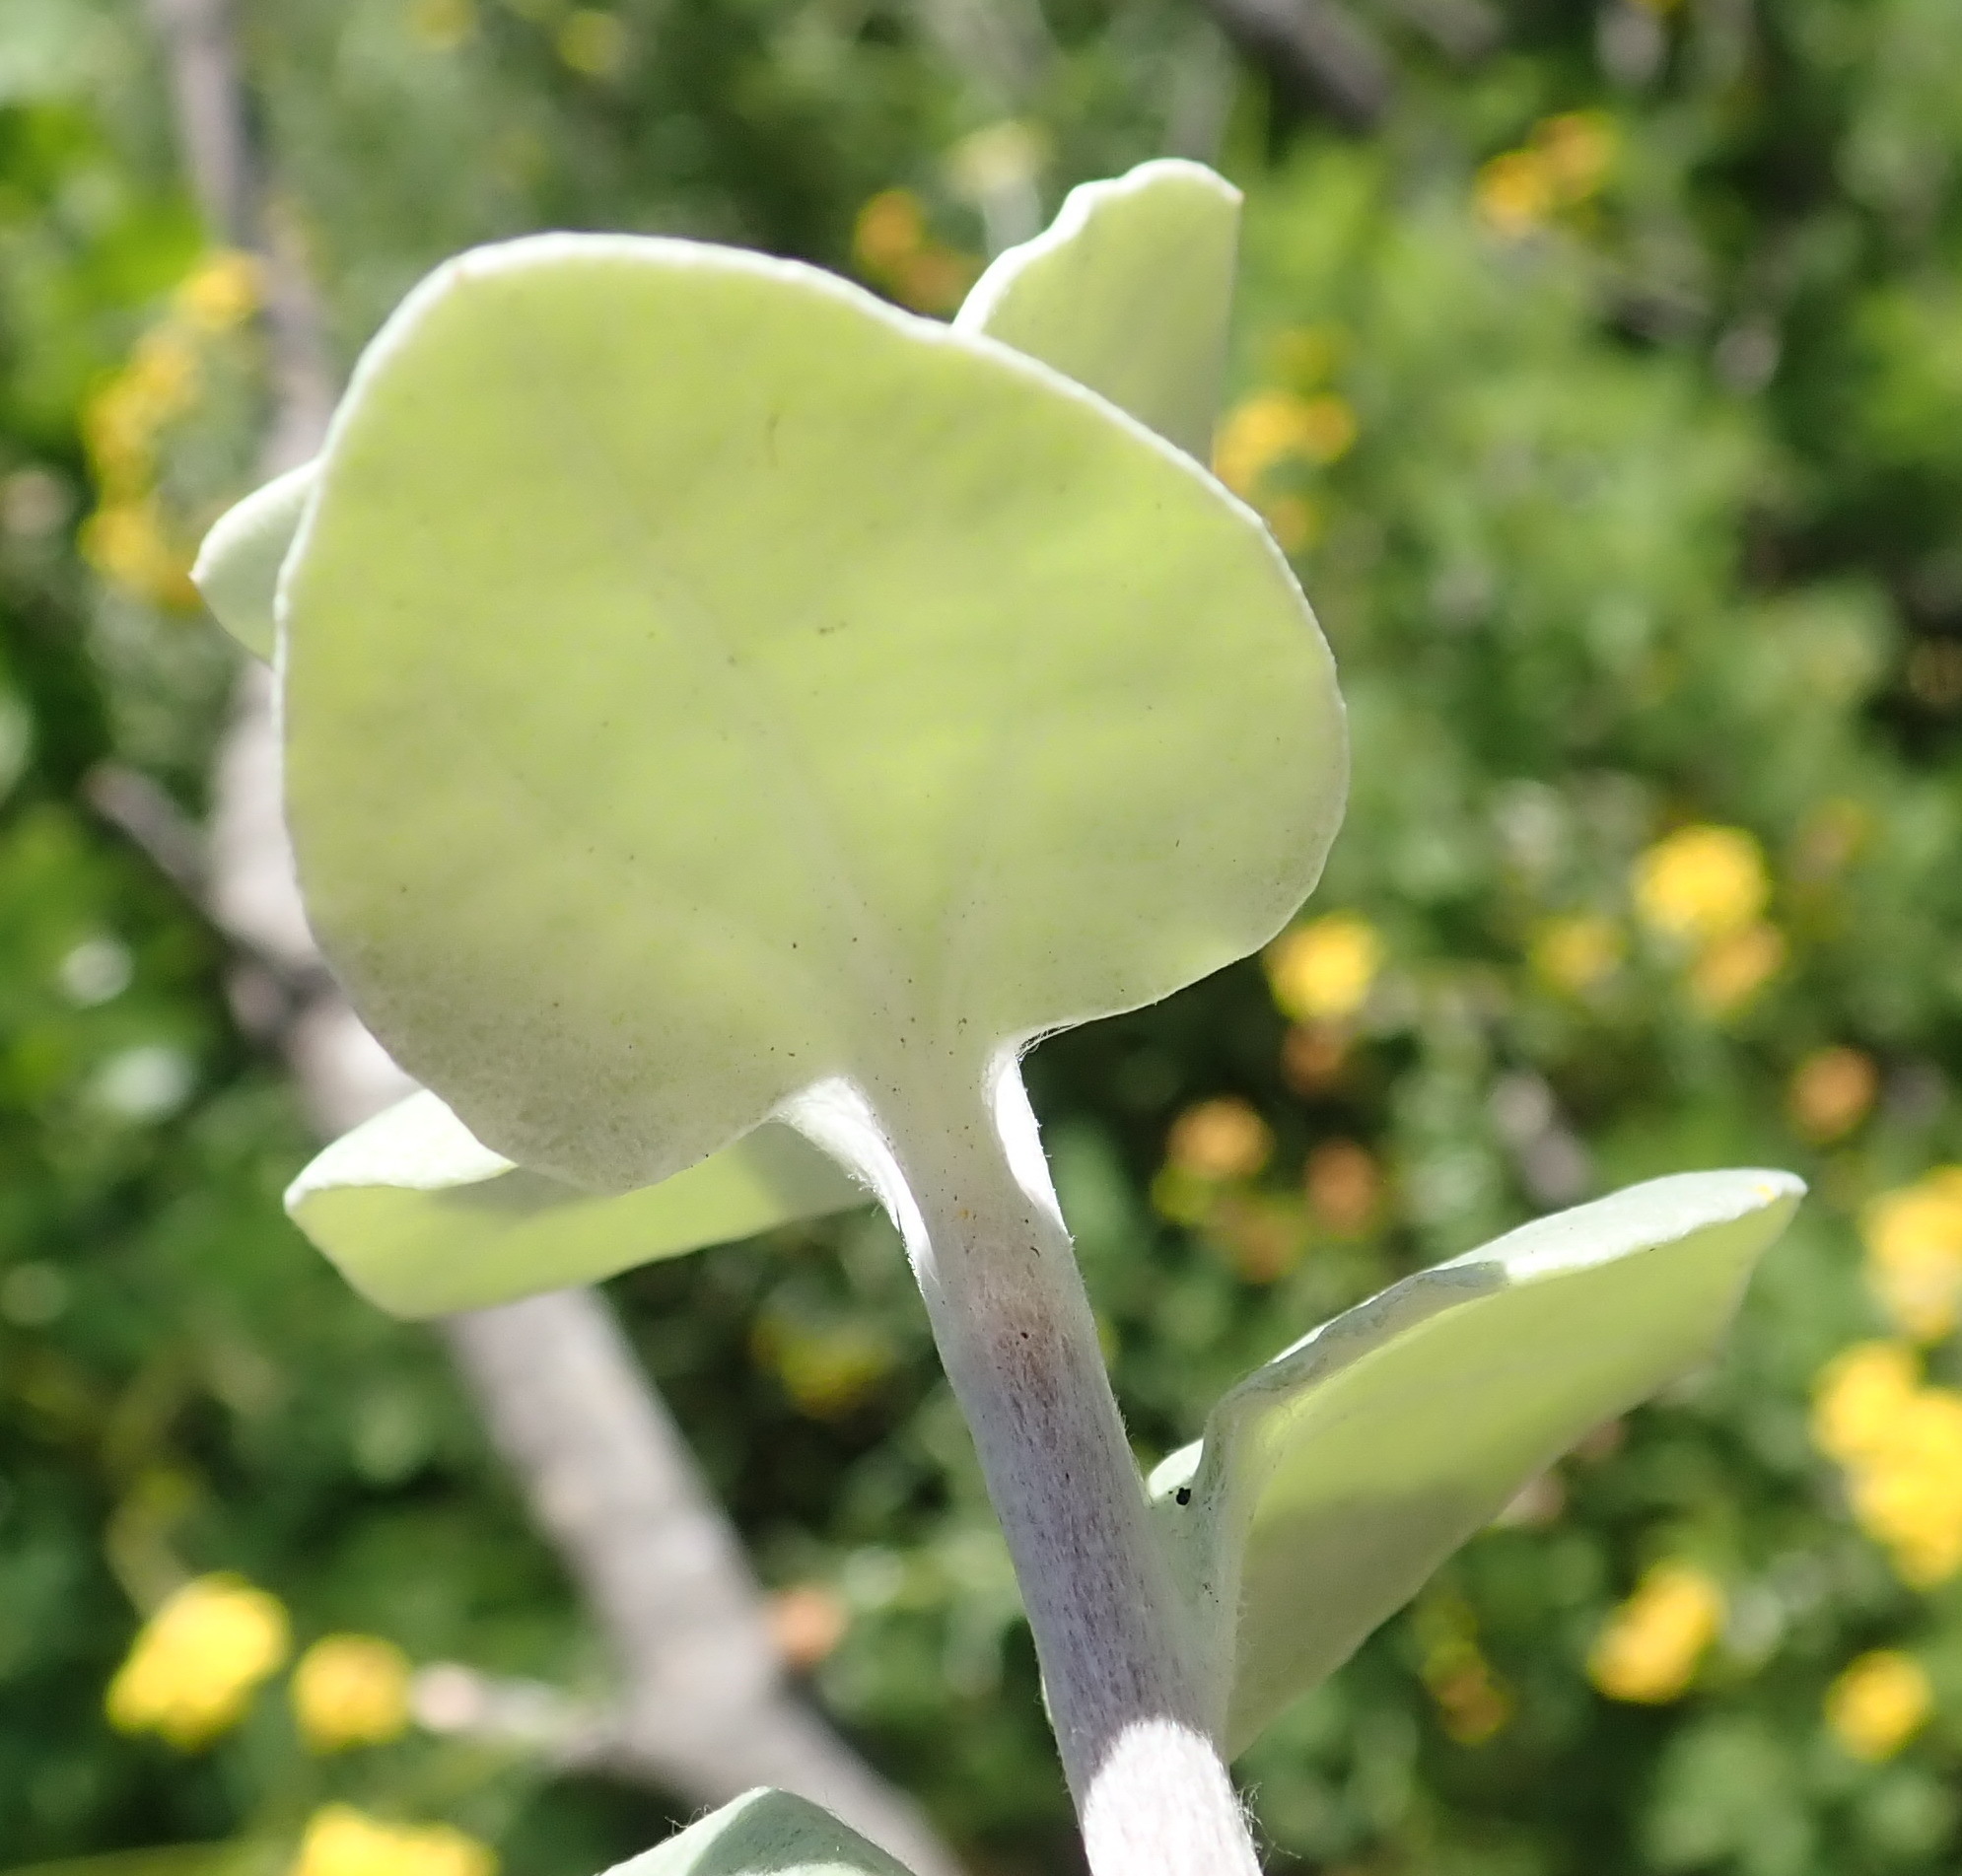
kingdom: Plantae
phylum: Tracheophyta
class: Magnoliopsida
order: Asterales
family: Asteraceae
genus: Helichrysum
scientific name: Helichrysum petiolare
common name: Licorice-plant
